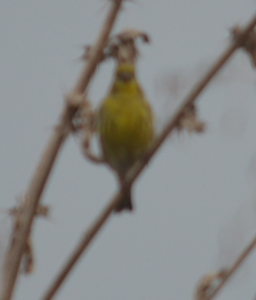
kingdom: Animalia
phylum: Chordata
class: Aves
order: Passeriformes
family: Fringillidae
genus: Serinus
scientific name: Serinus serinus
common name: European serin
